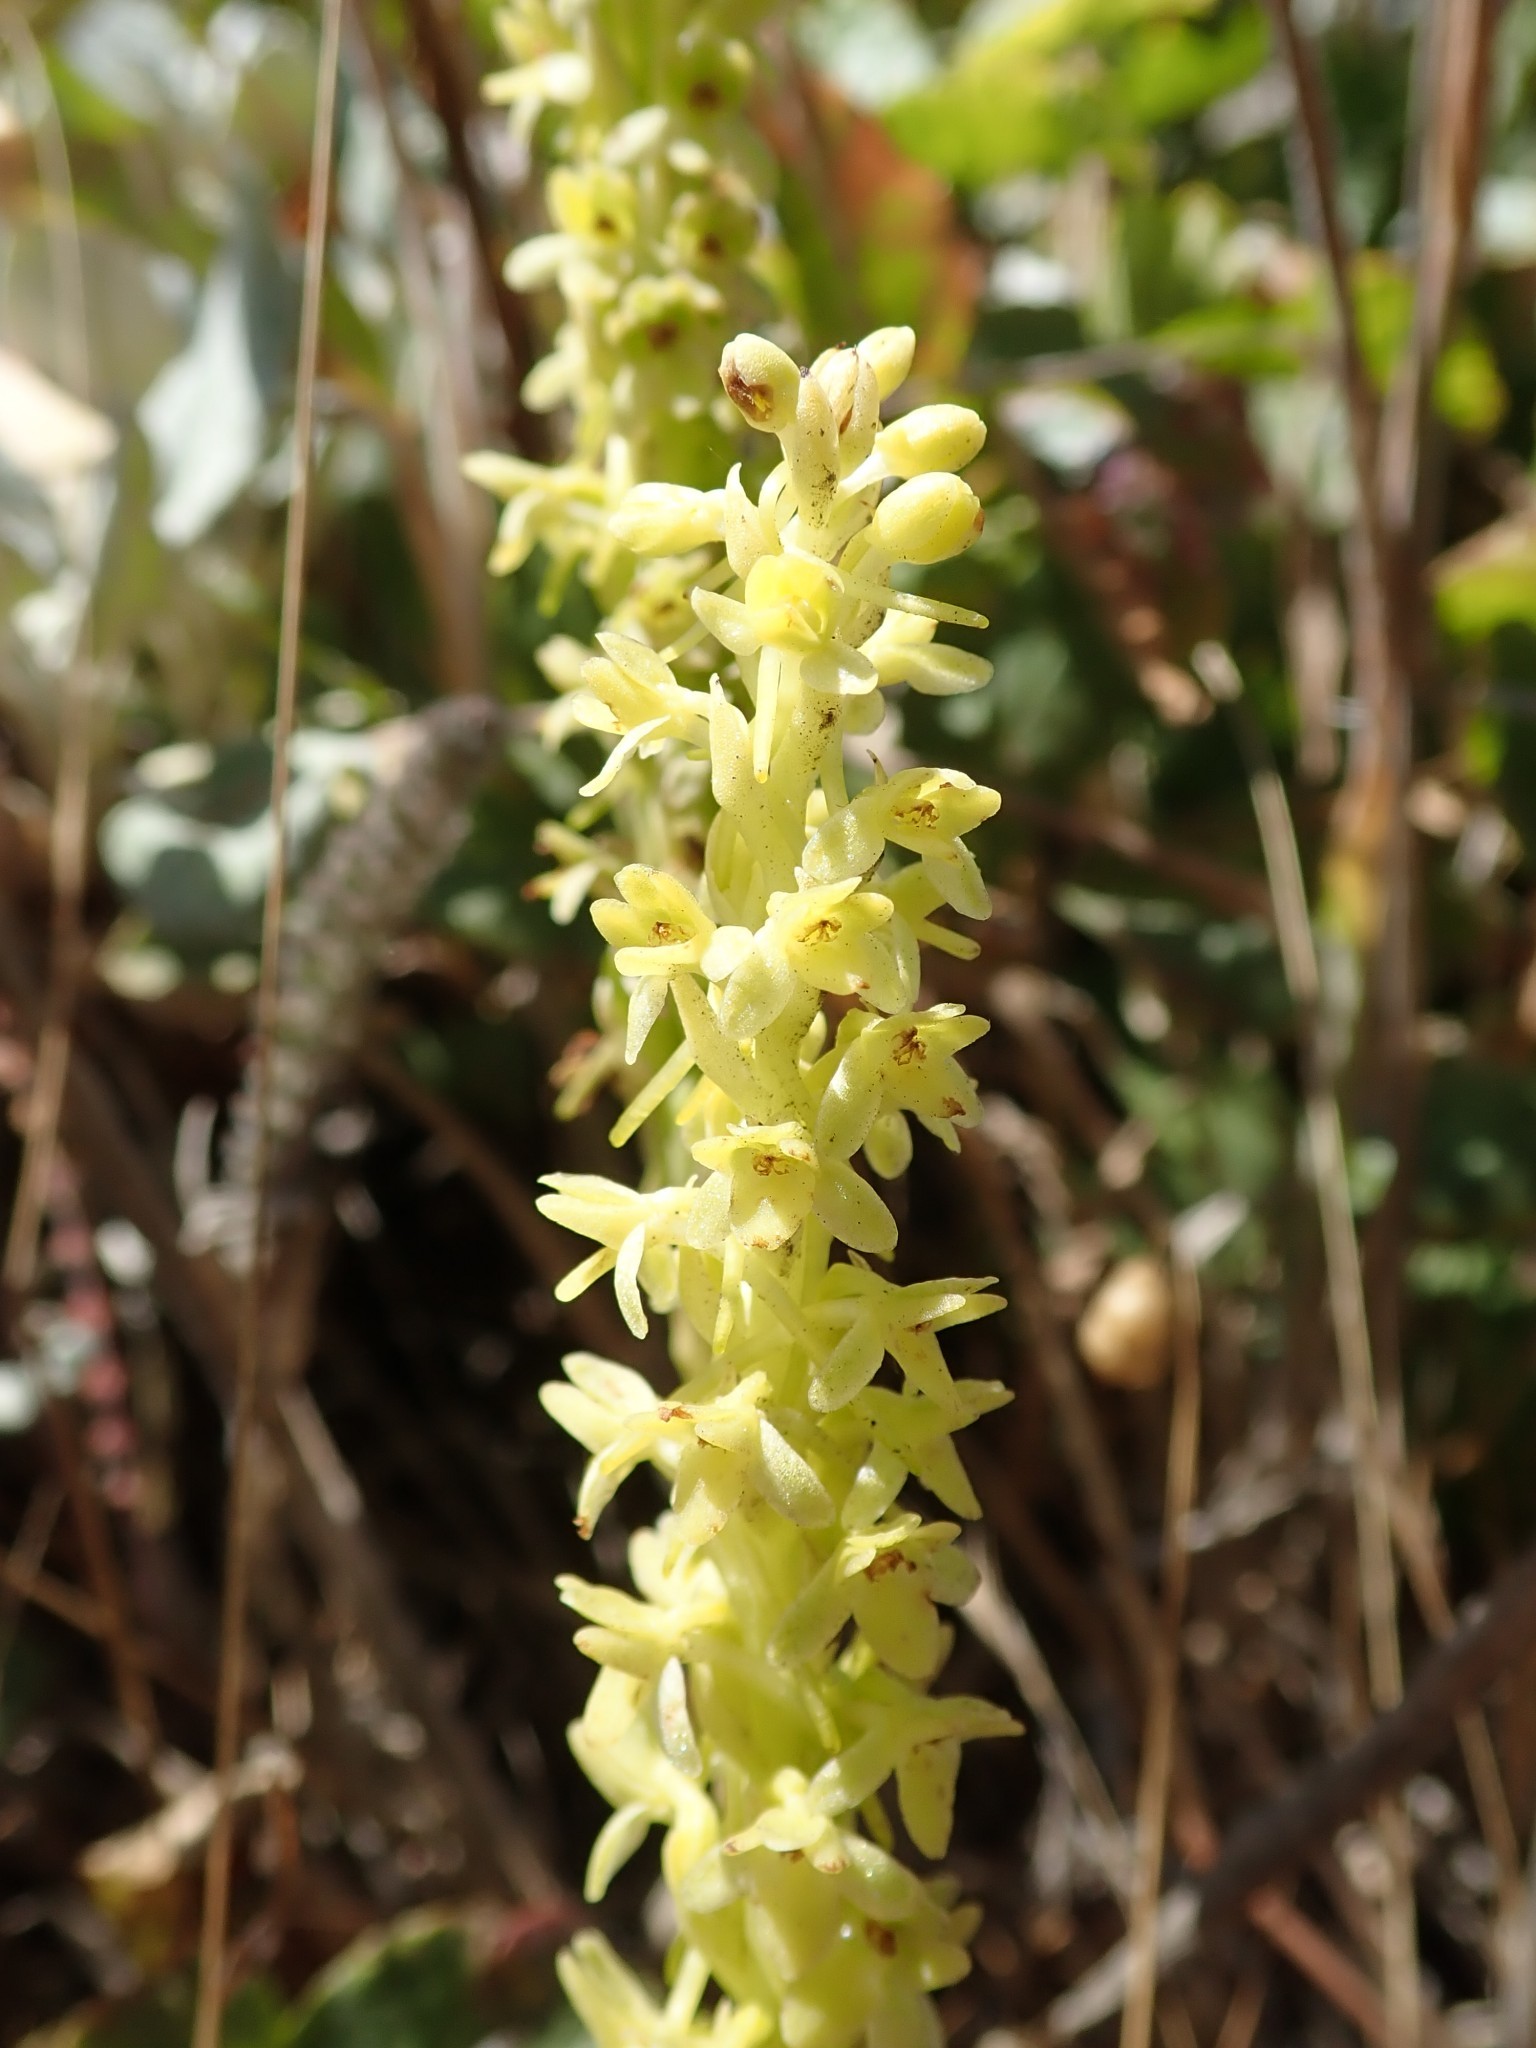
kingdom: Plantae
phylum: Tracheophyta
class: Liliopsida
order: Asparagales
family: Orchidaceae
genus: Platanthera
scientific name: Platanthera michaelii
